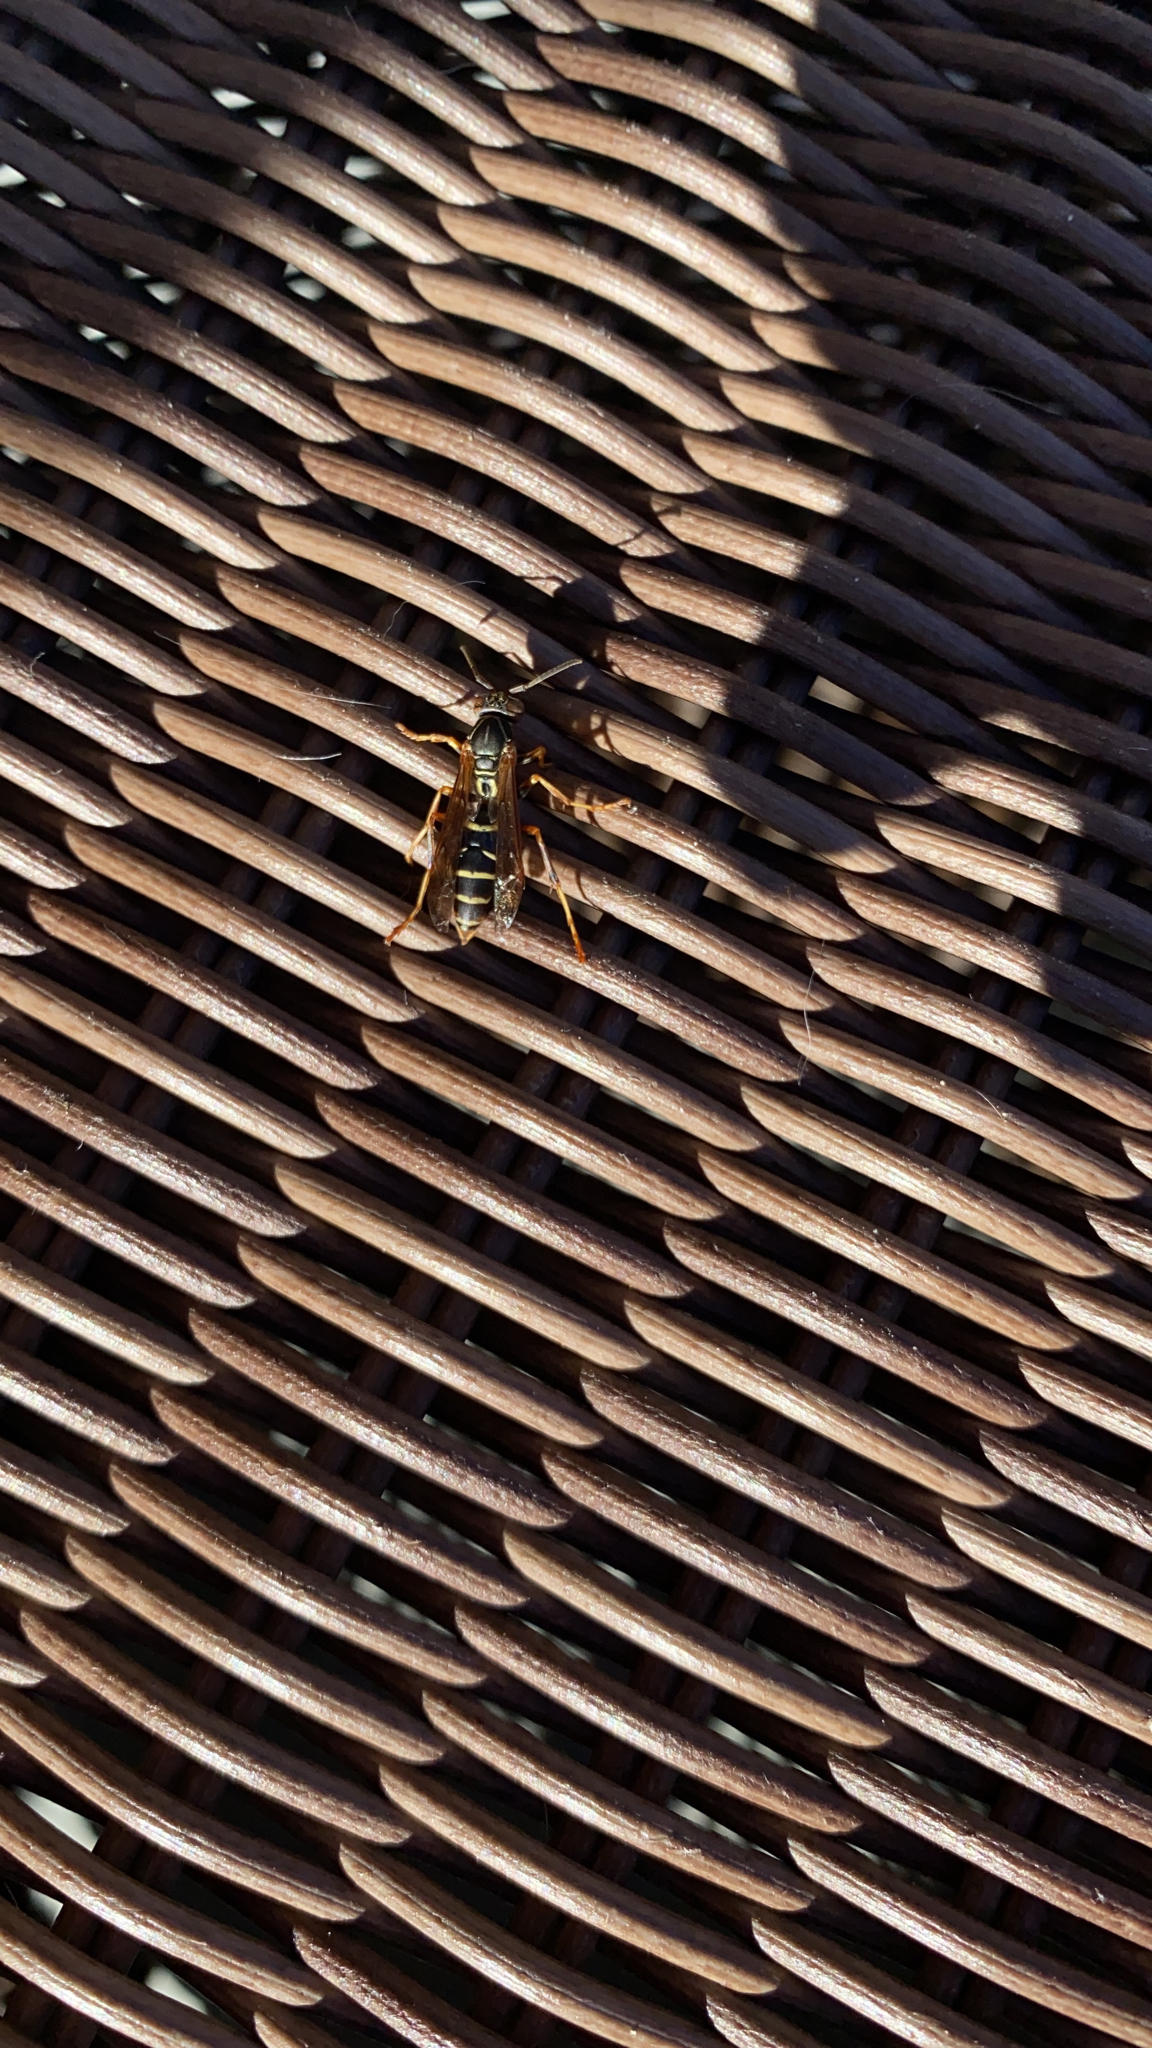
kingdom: Animalia
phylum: Arthropoda
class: Insecta
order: Hymenoptera
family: Eumenidae
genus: Polistes
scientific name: Polistes fuscatus
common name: Dark paper wasp
